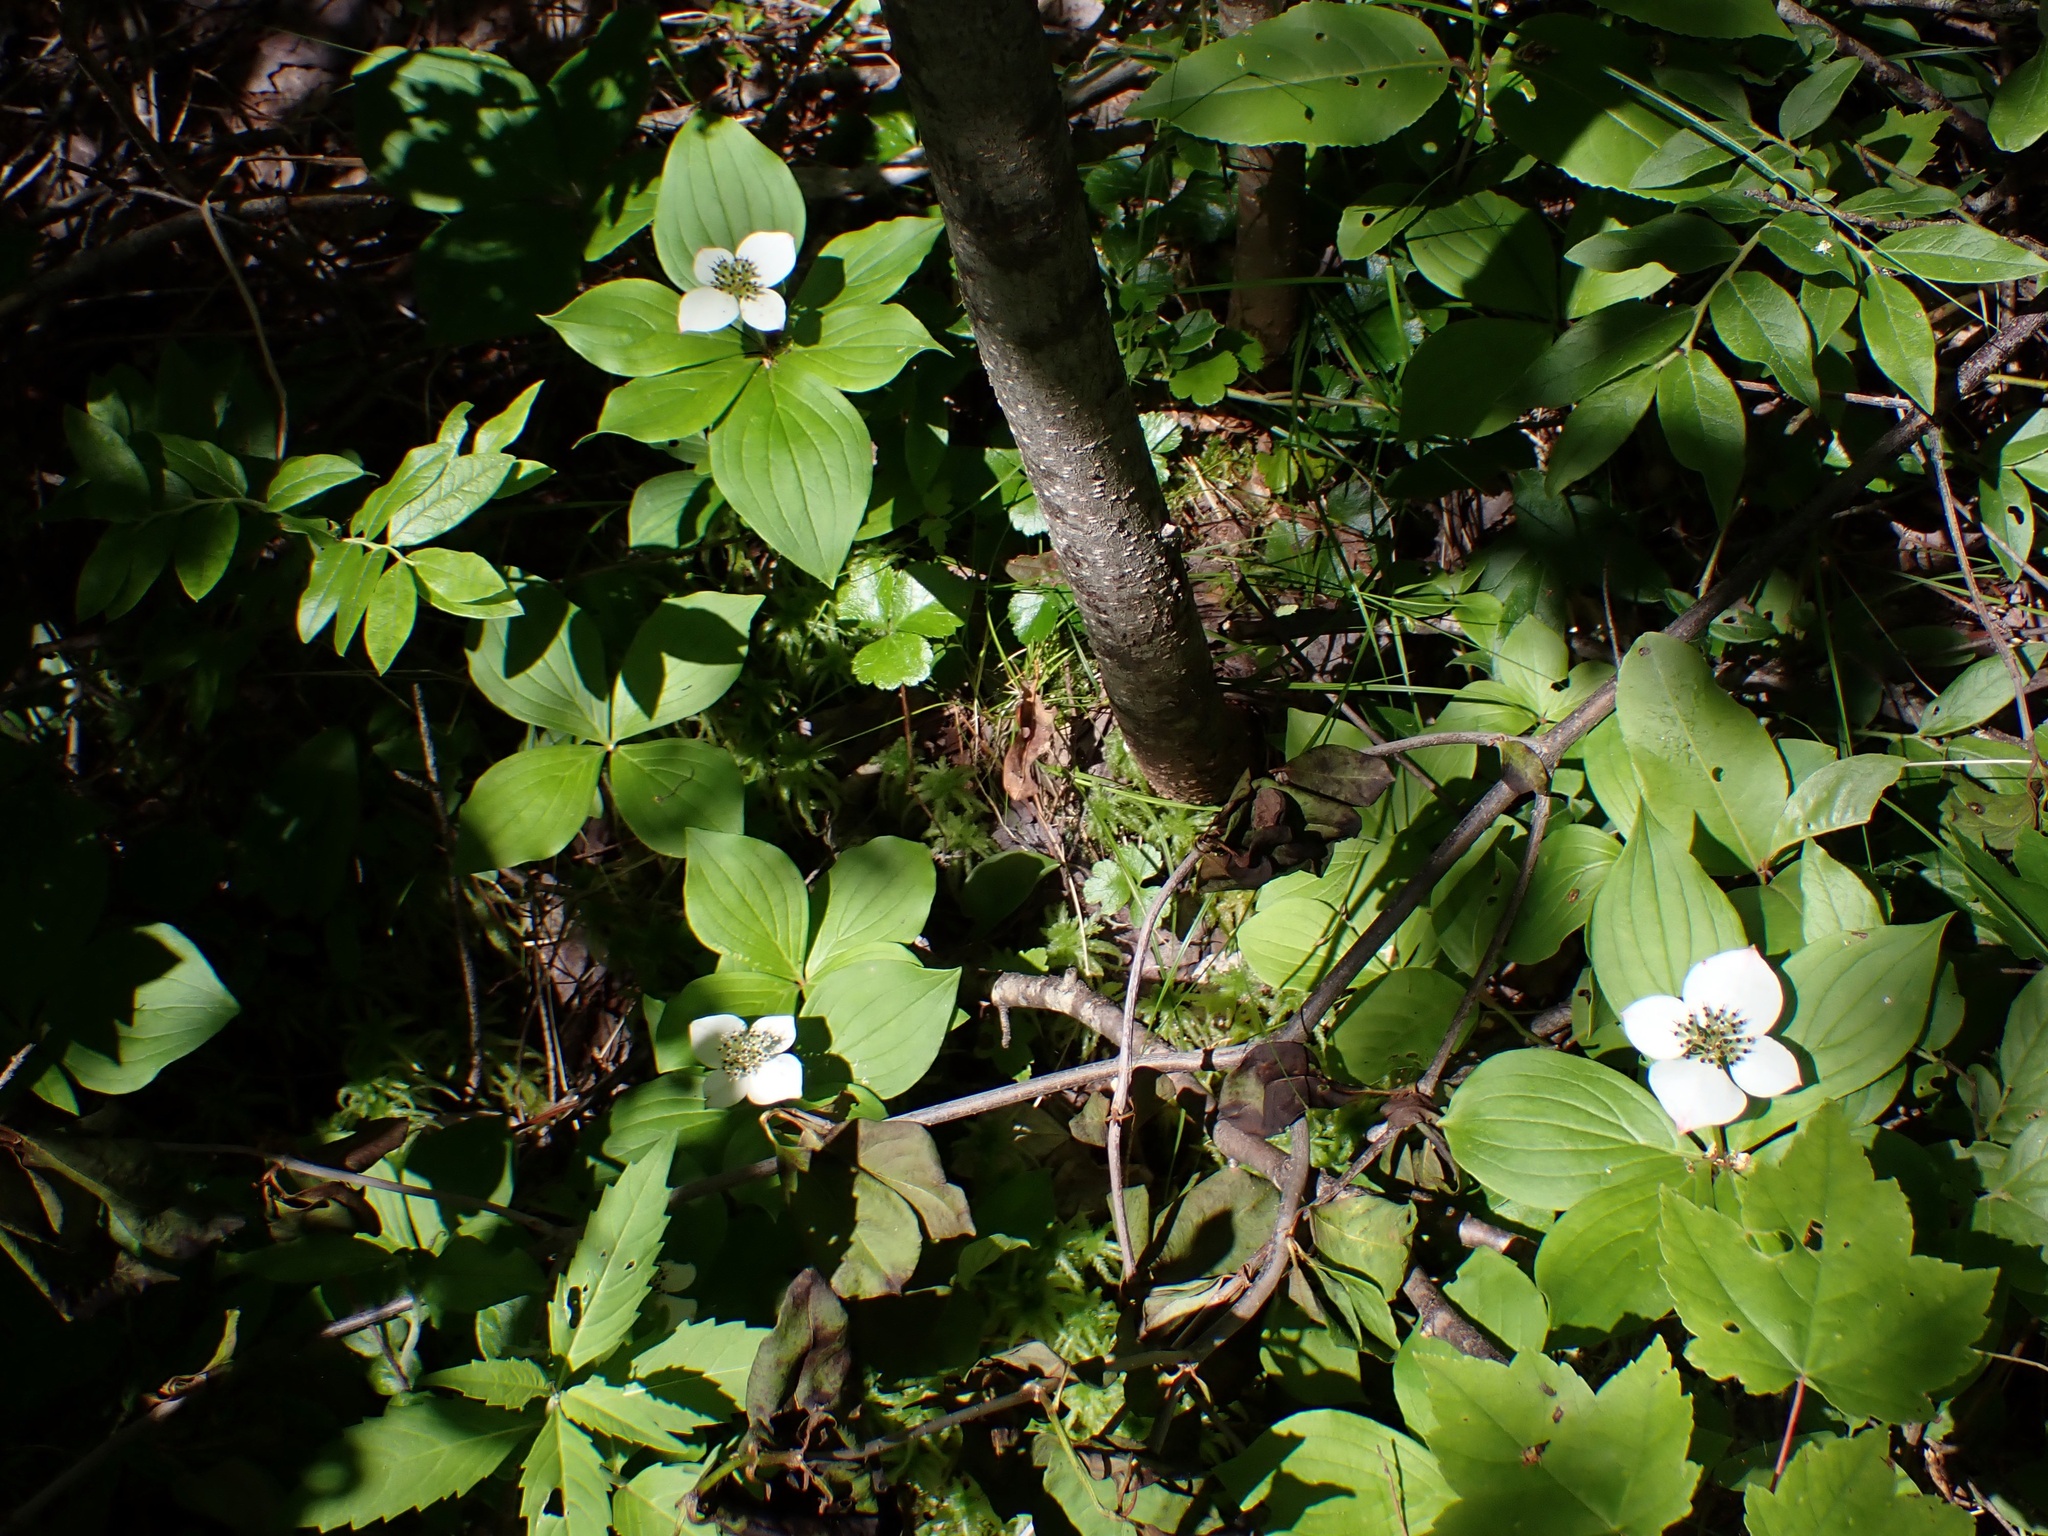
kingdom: Plantae
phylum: Tracheophyta
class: Magnoliopsida
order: Cornales
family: Cornaceae
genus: Cornus
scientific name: Cornus canadensis
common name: Creeping dogwood
